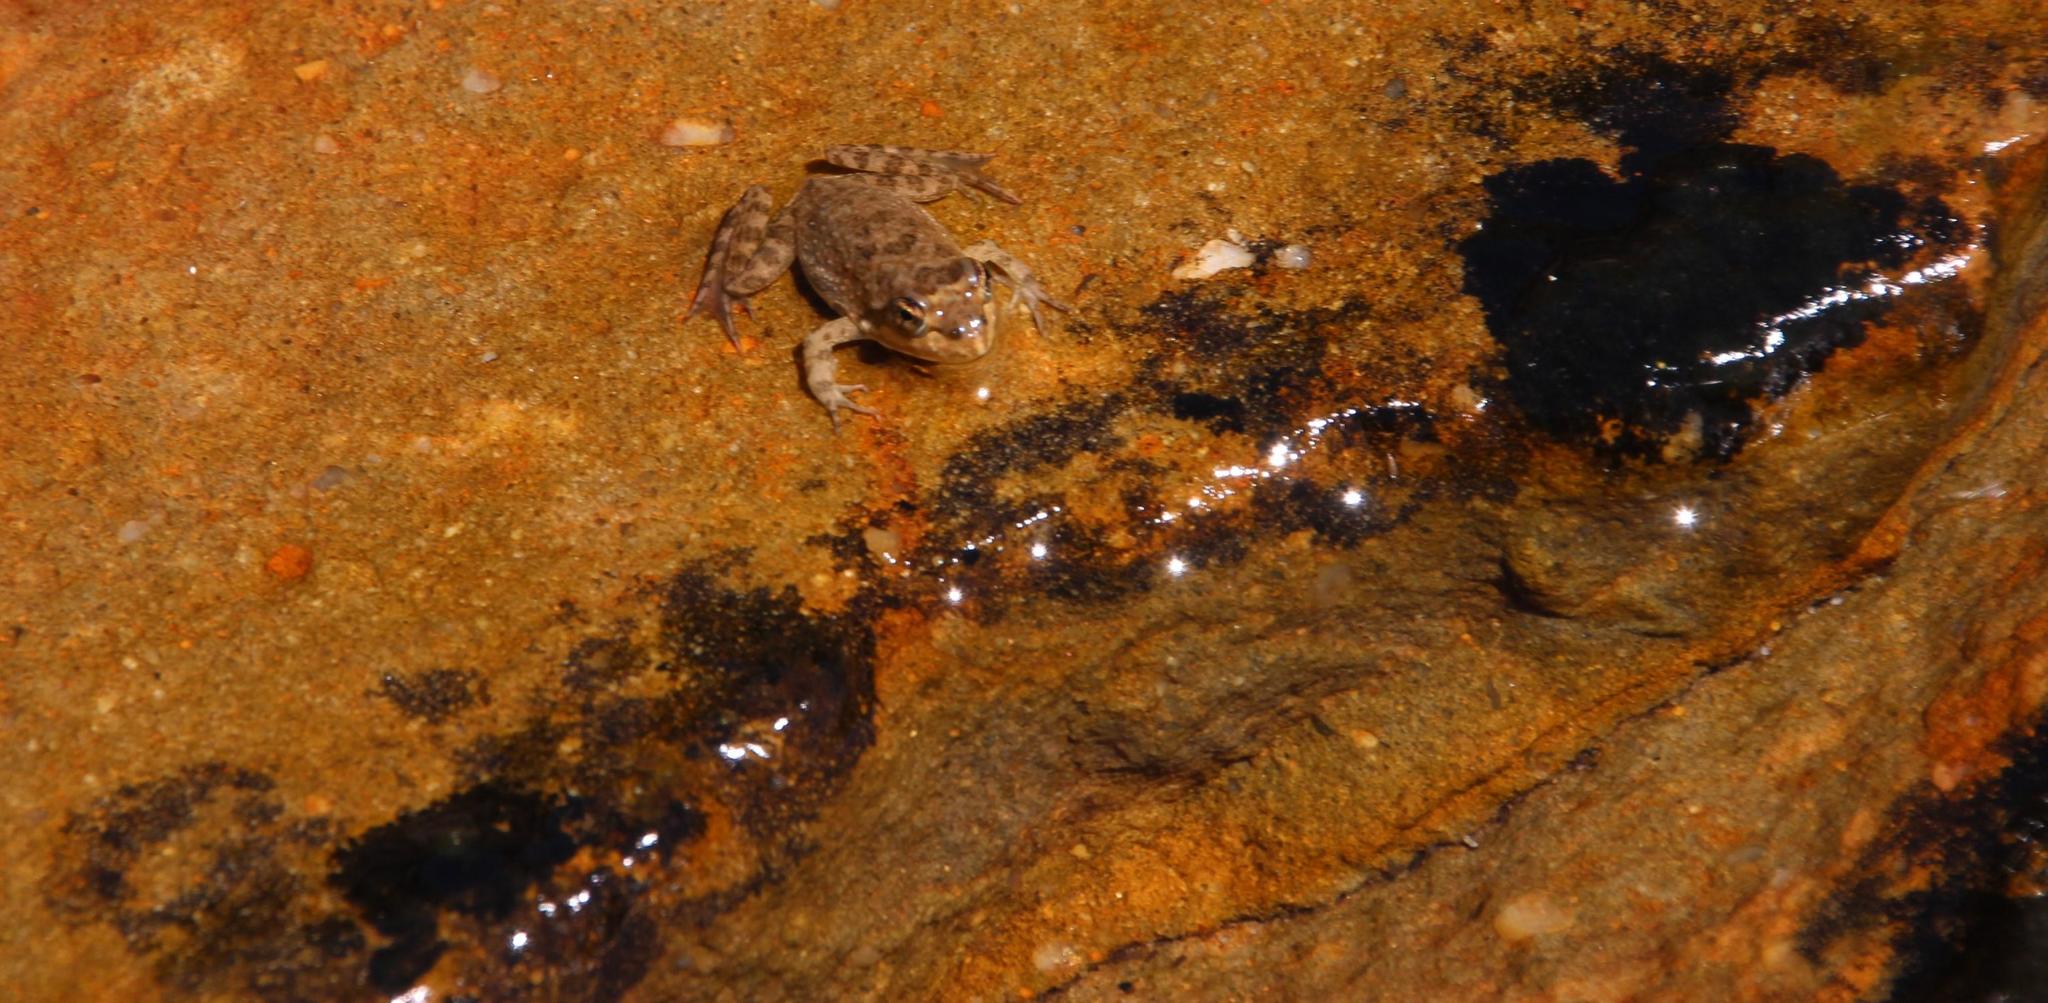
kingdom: Animalia
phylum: Chordata
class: Amphibia
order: Anura
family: Pyxicephalidae
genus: Amietia
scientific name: Amietia fuscigula
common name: Cape rana
